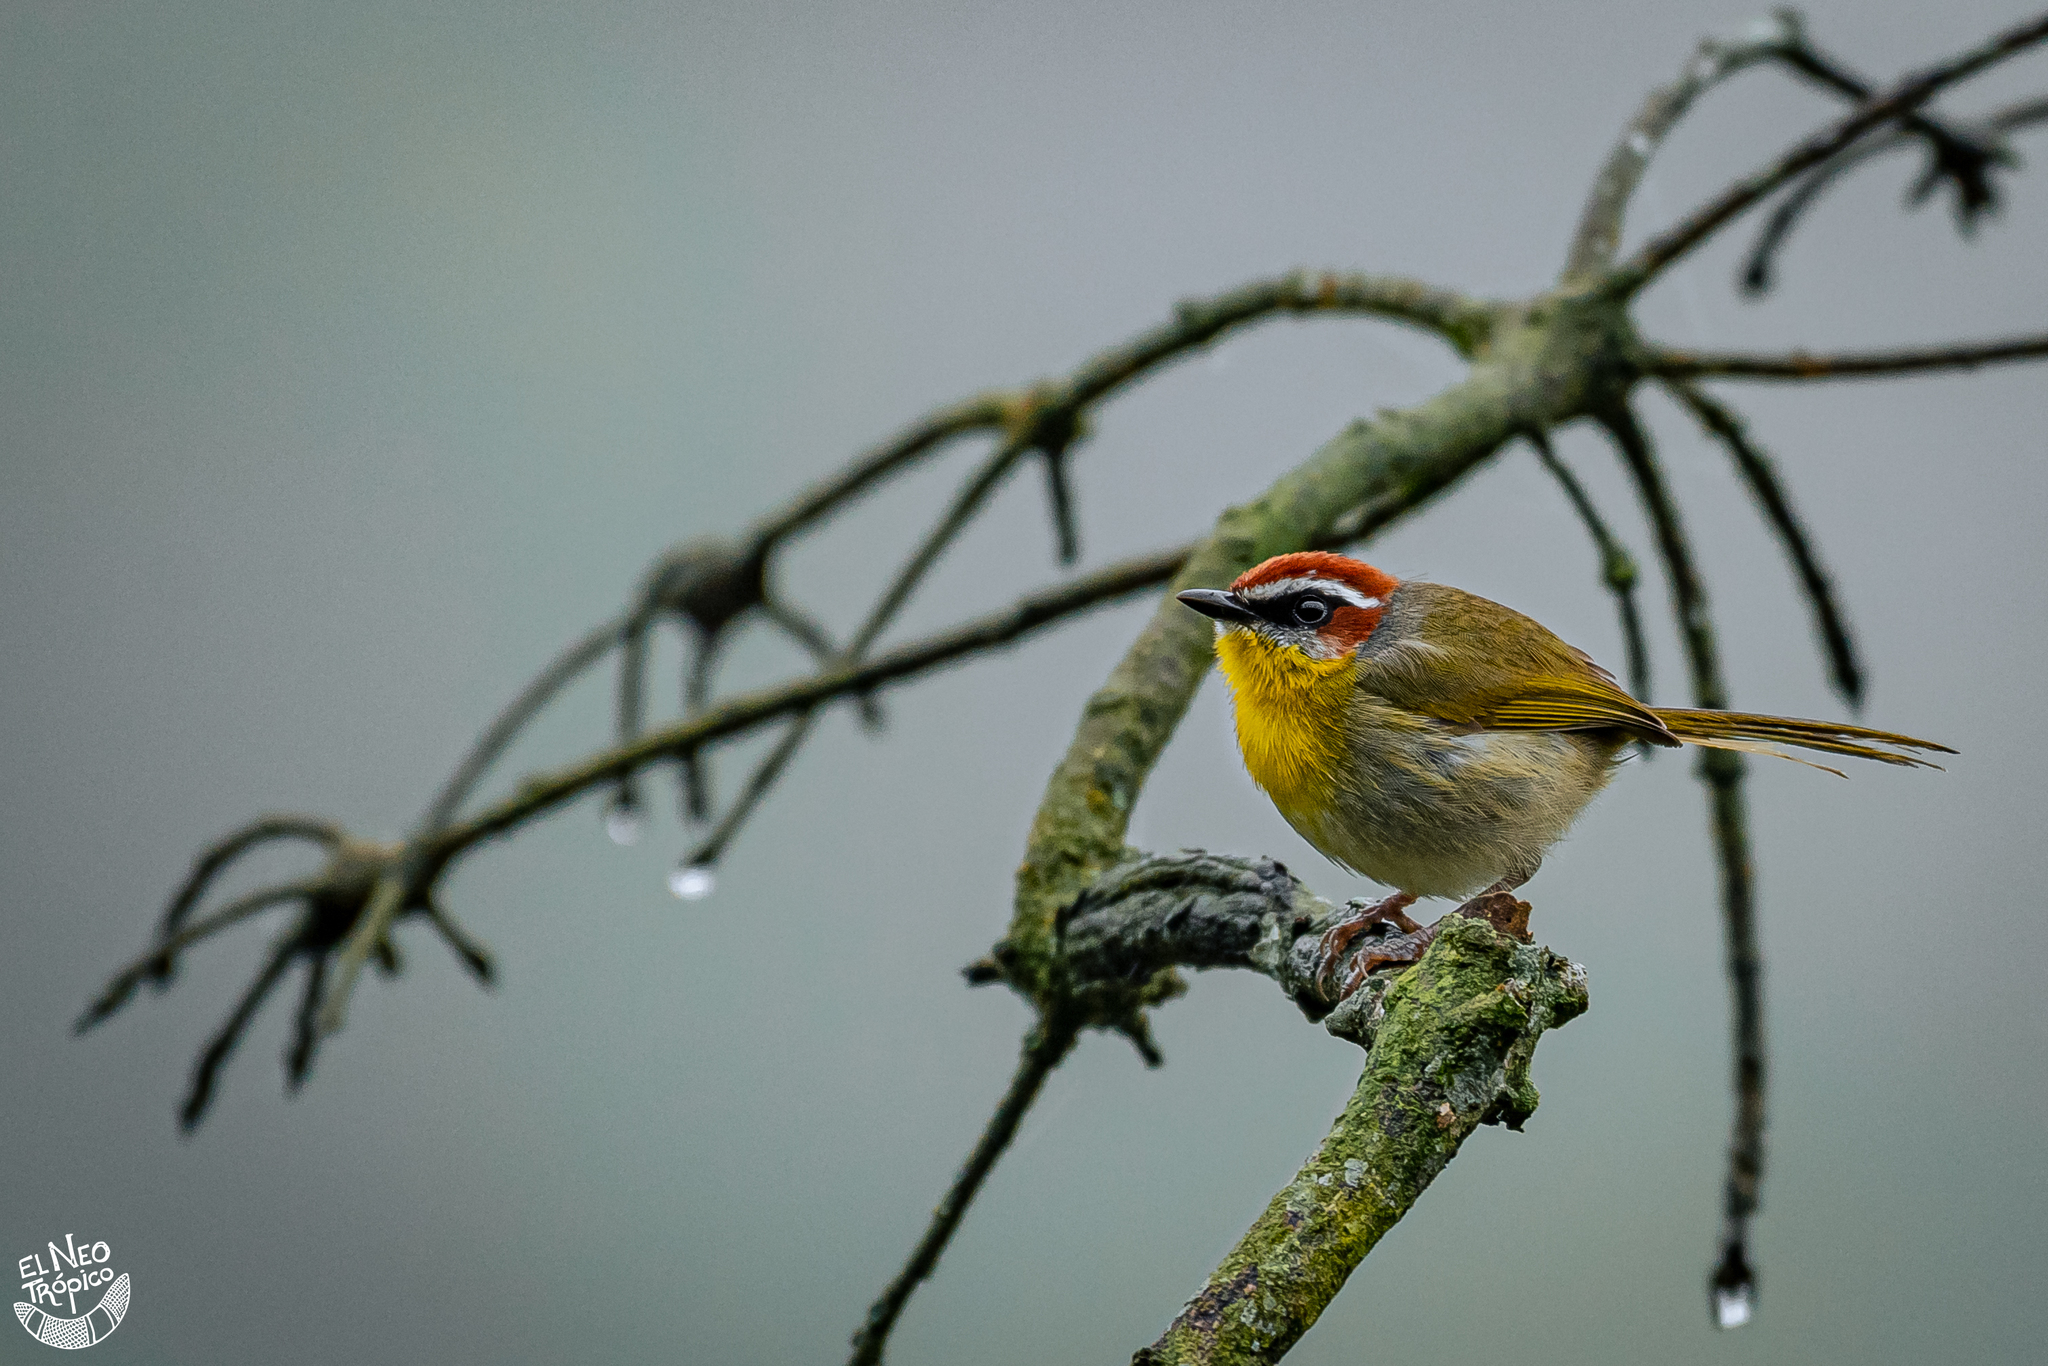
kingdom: Animalia
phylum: Chordata
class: Aves
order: Passeriformes
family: Parulidae
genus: Basileuterus
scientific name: Basileuterus rufifrons
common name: Rufous-capped warbler
